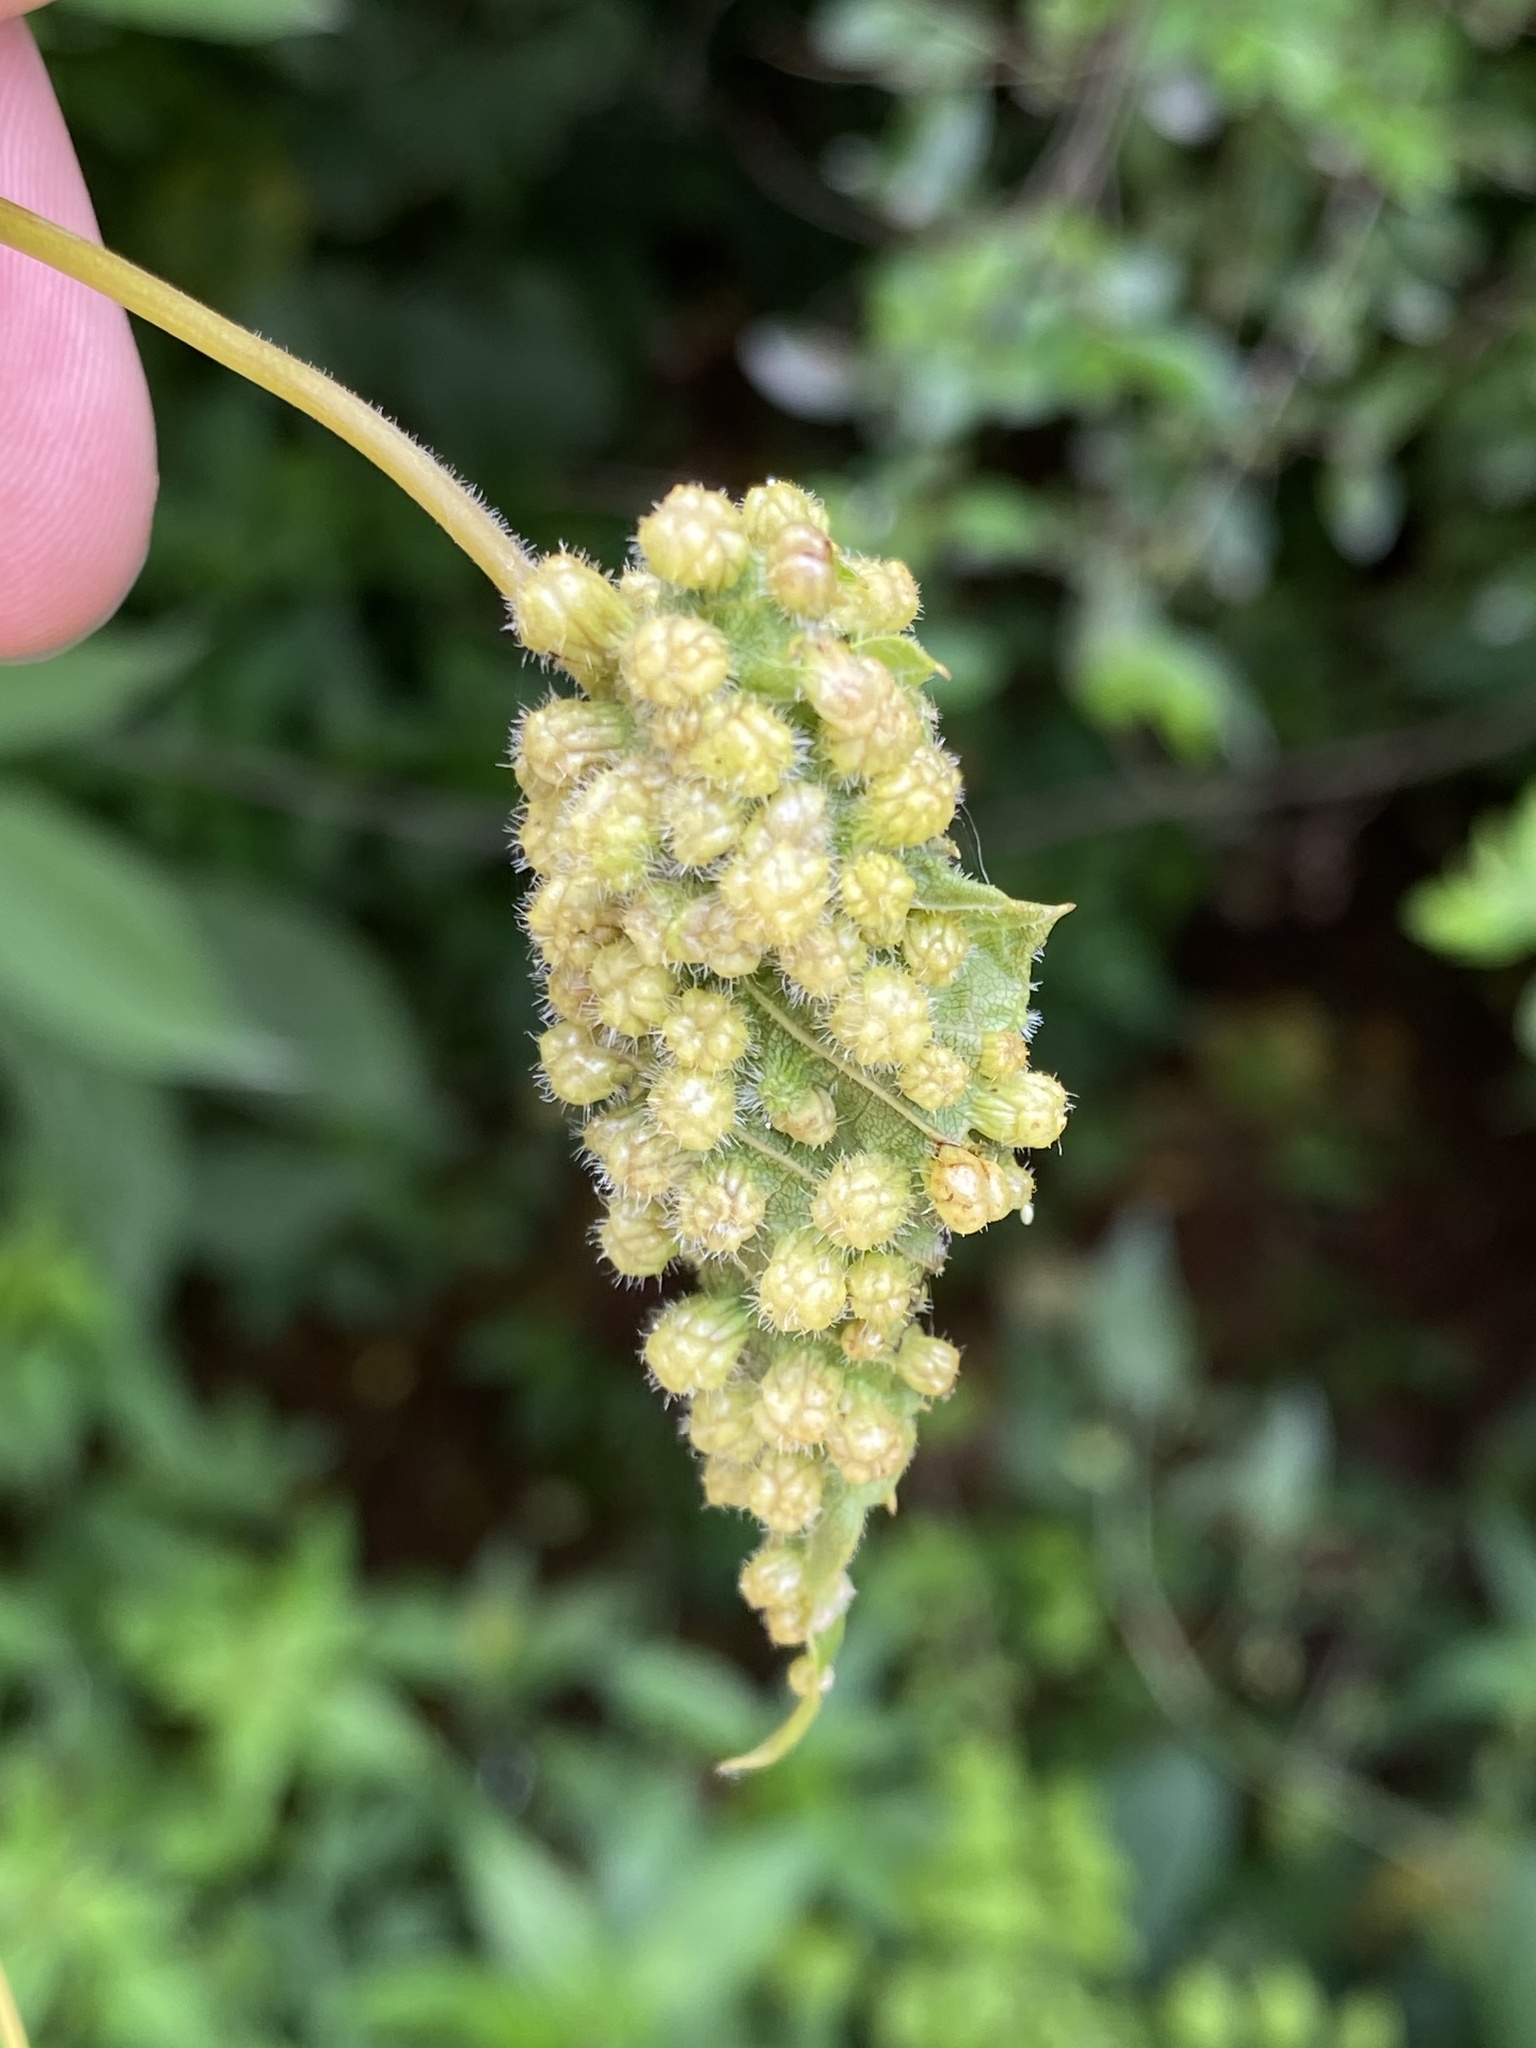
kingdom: Animalia
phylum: Arthropoda
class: Insecta
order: Hemiptera
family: Phylloxeridae
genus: Daktulosphaira
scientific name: Daktulosphaira vitifoliae
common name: Grape phylloxera
